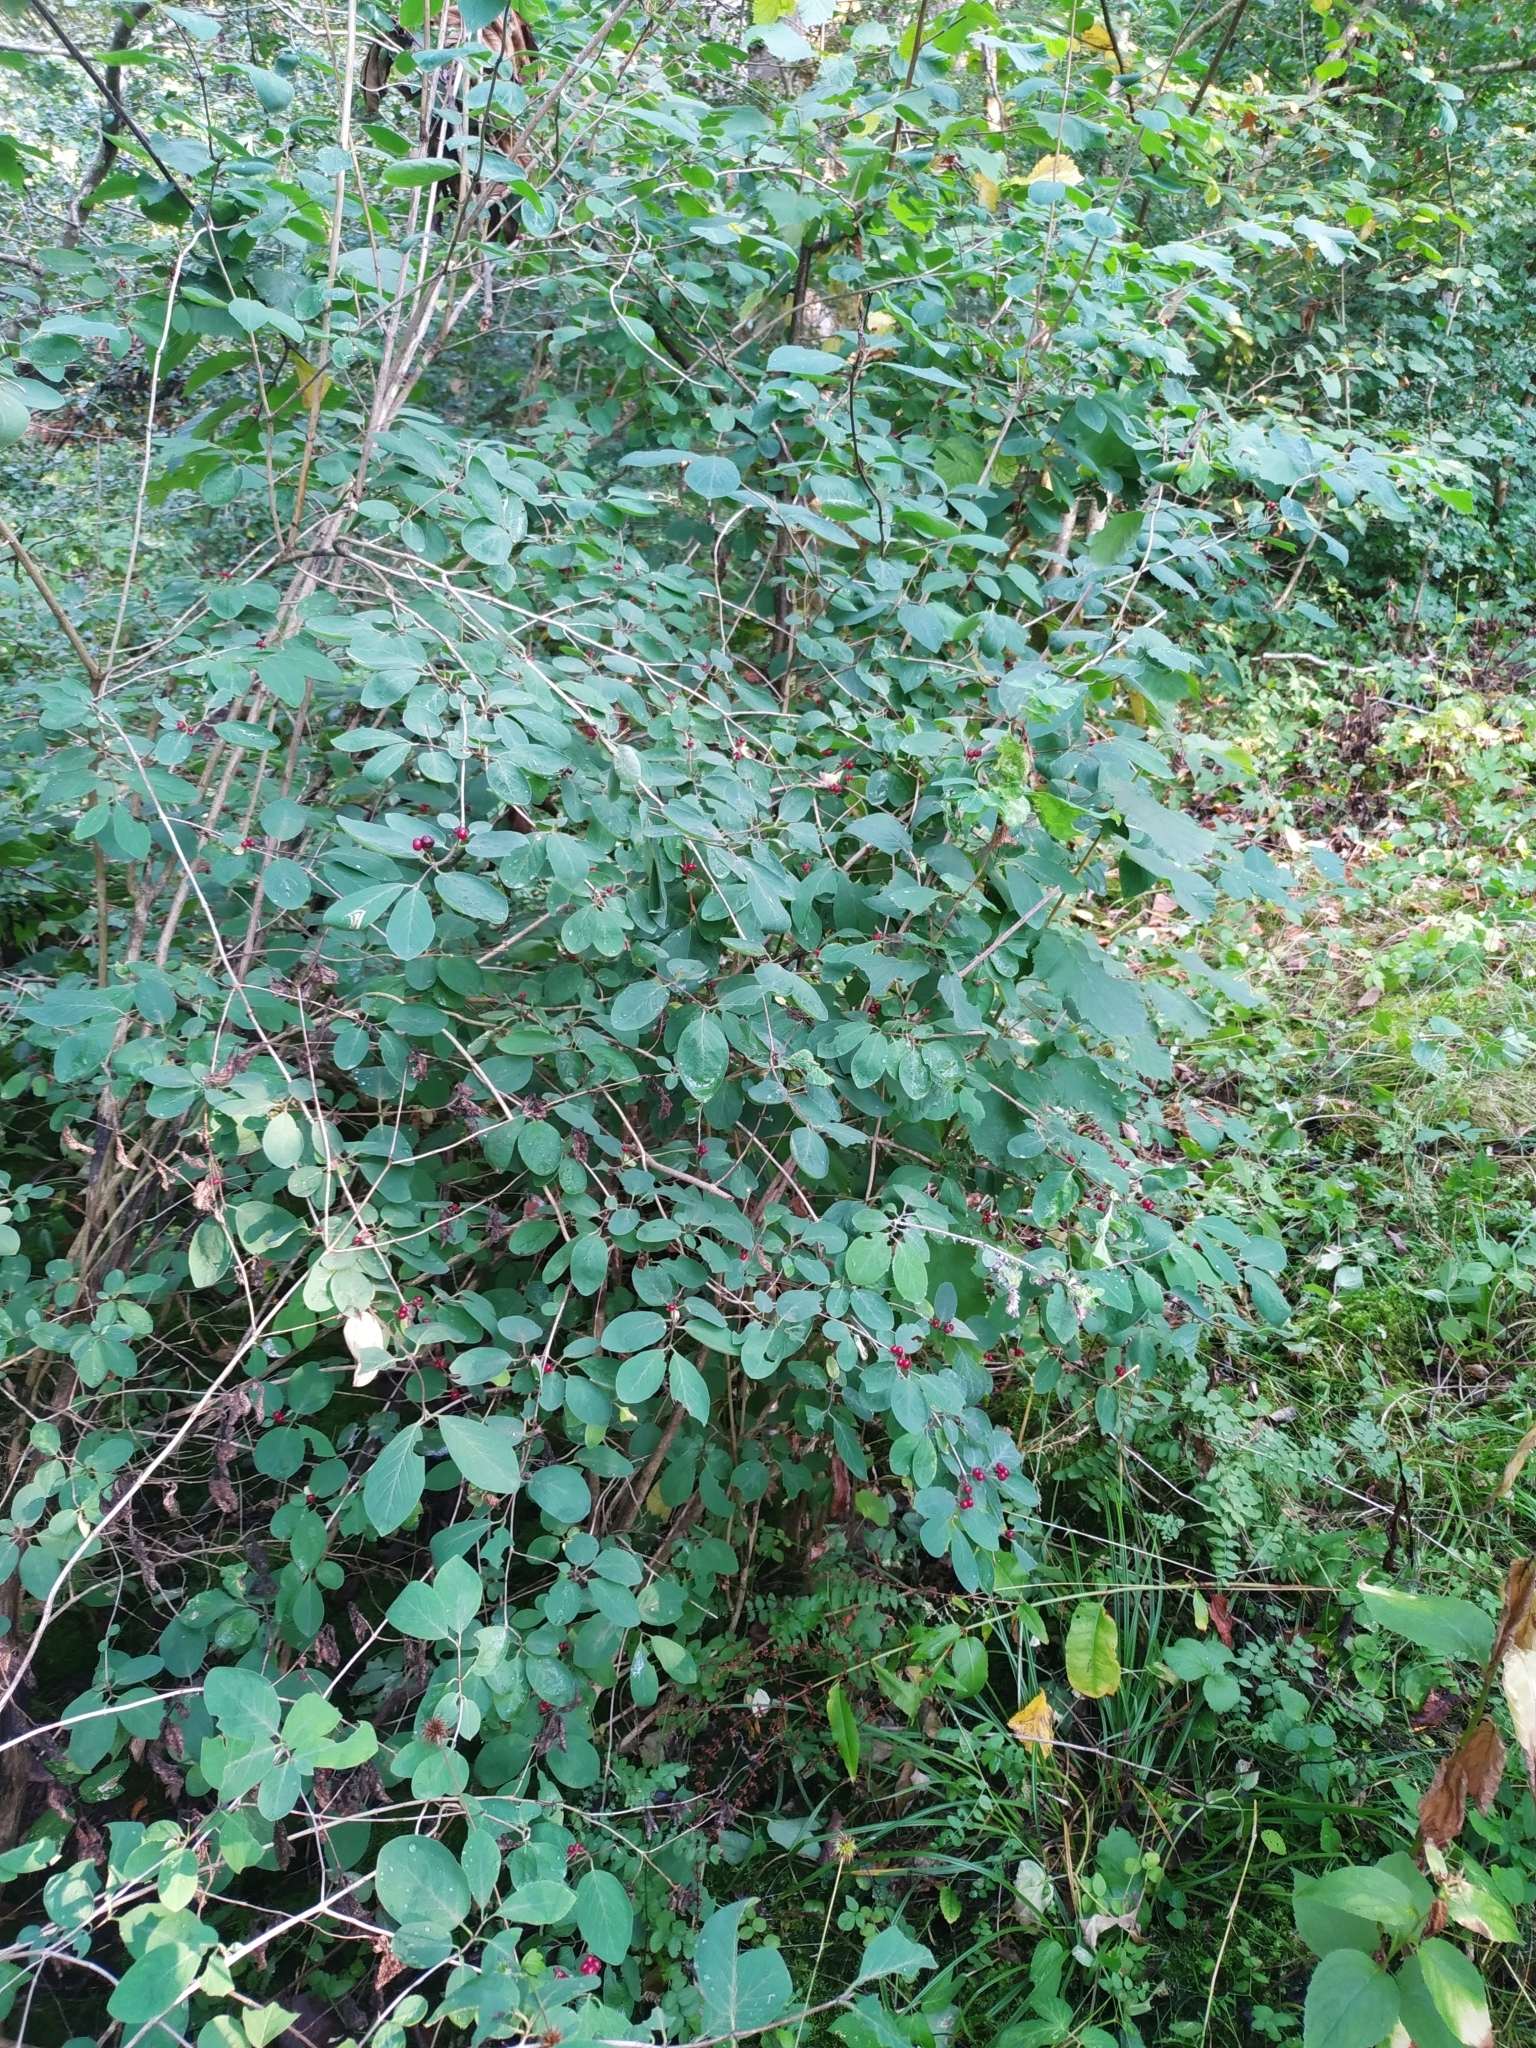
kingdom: Plantae
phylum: Tracheophyta
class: Magnoliopsida
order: Dipsacales
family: Caprifoliaceae
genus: Lonicera
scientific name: Lonicera xylosteum
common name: Fly honeysuckle
